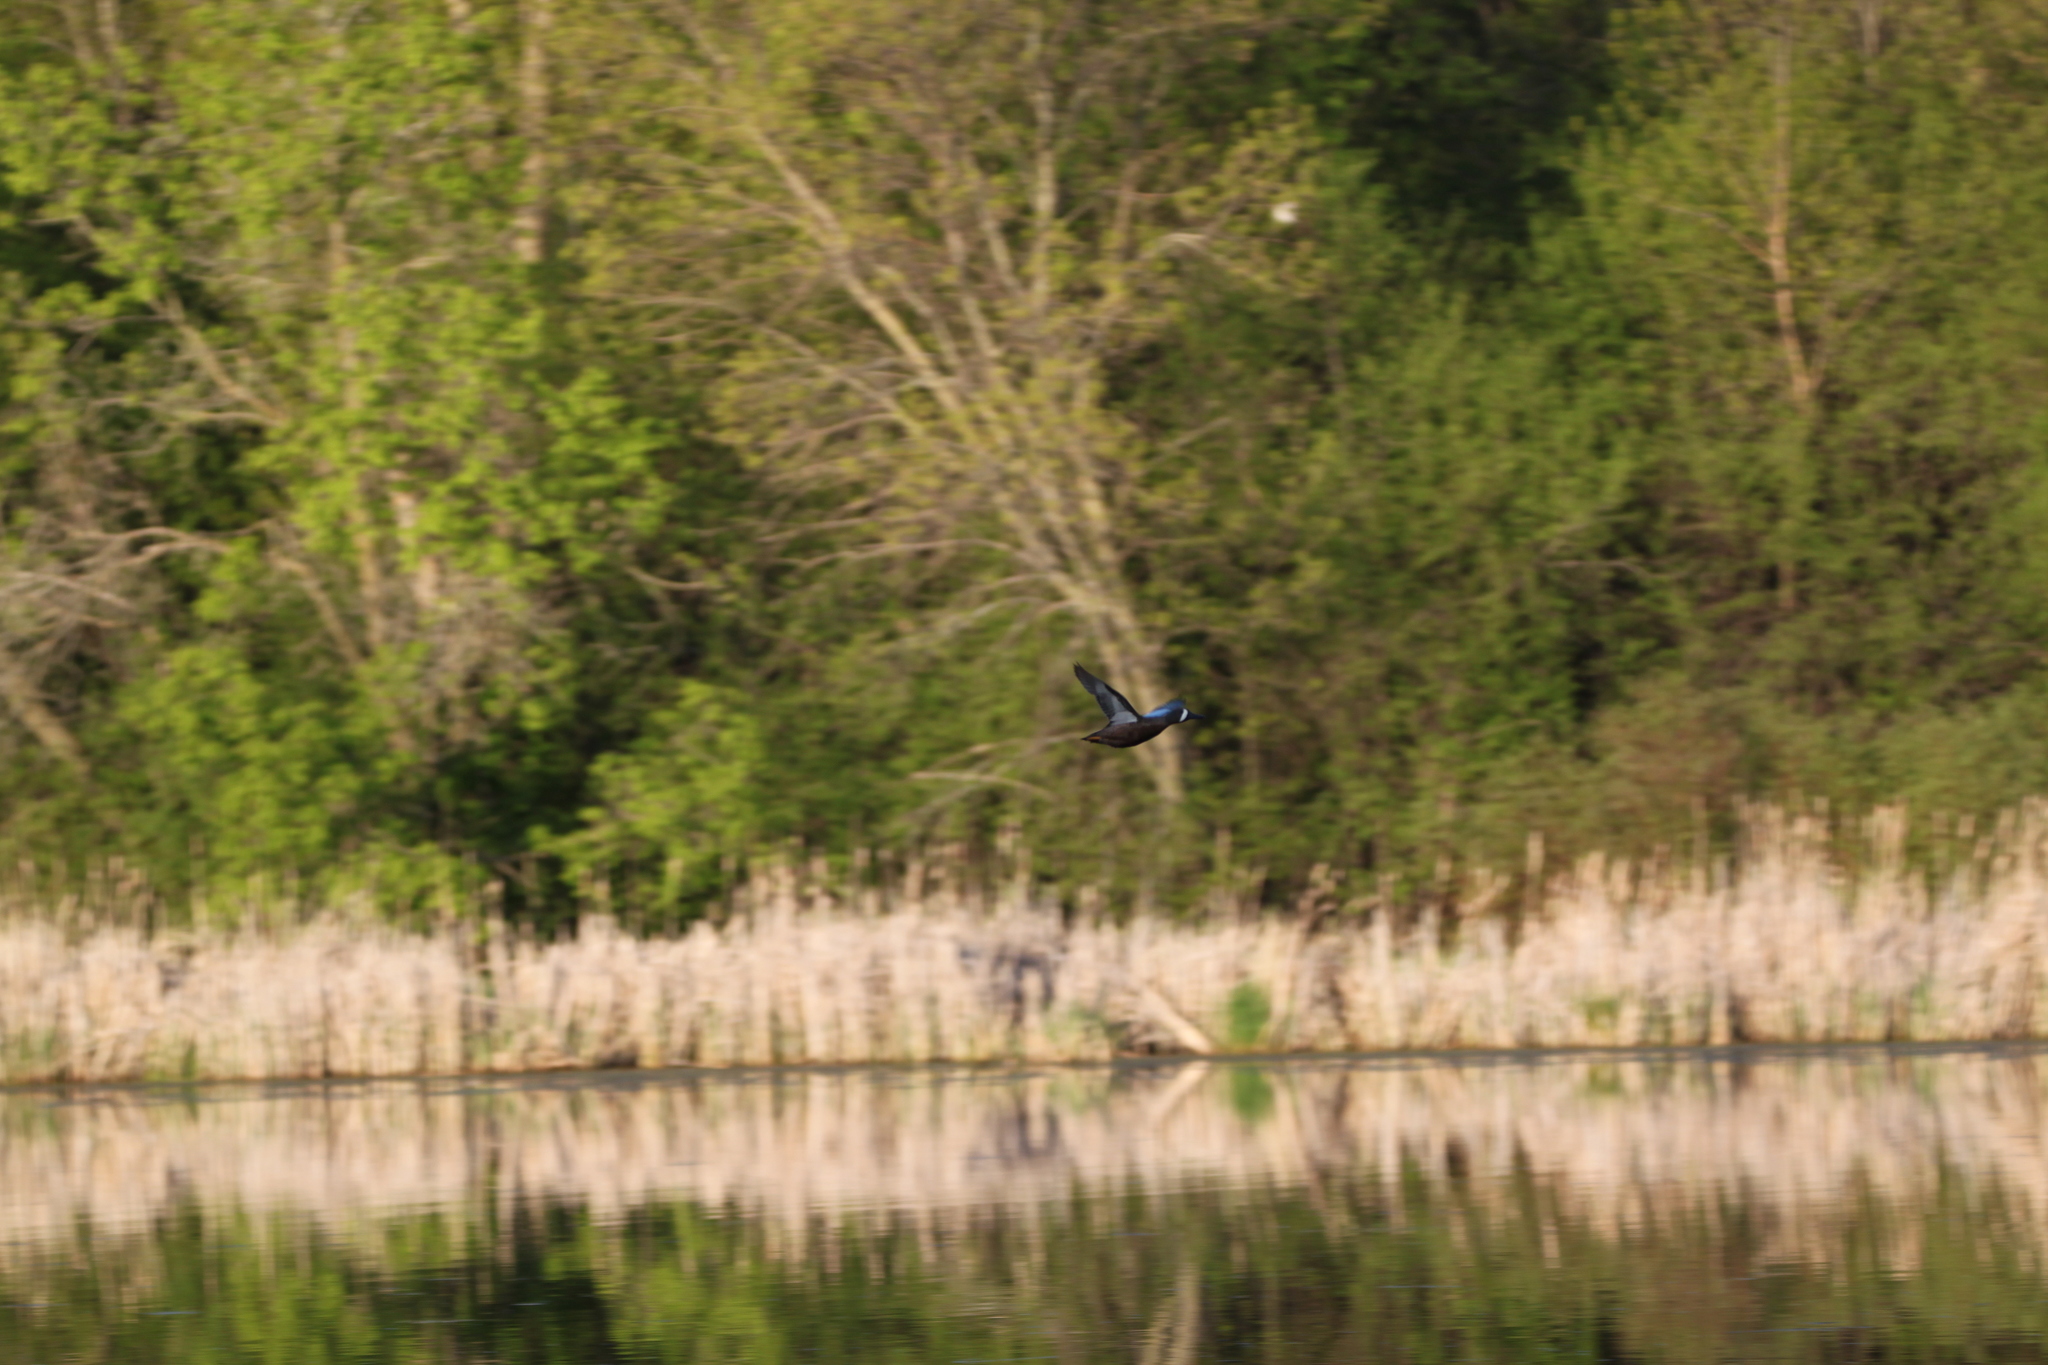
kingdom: Animalia
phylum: Chordata
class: Aves
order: Anseriformes
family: Anatidae
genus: Spatula
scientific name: Spatula discors
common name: Blue-winged teal
